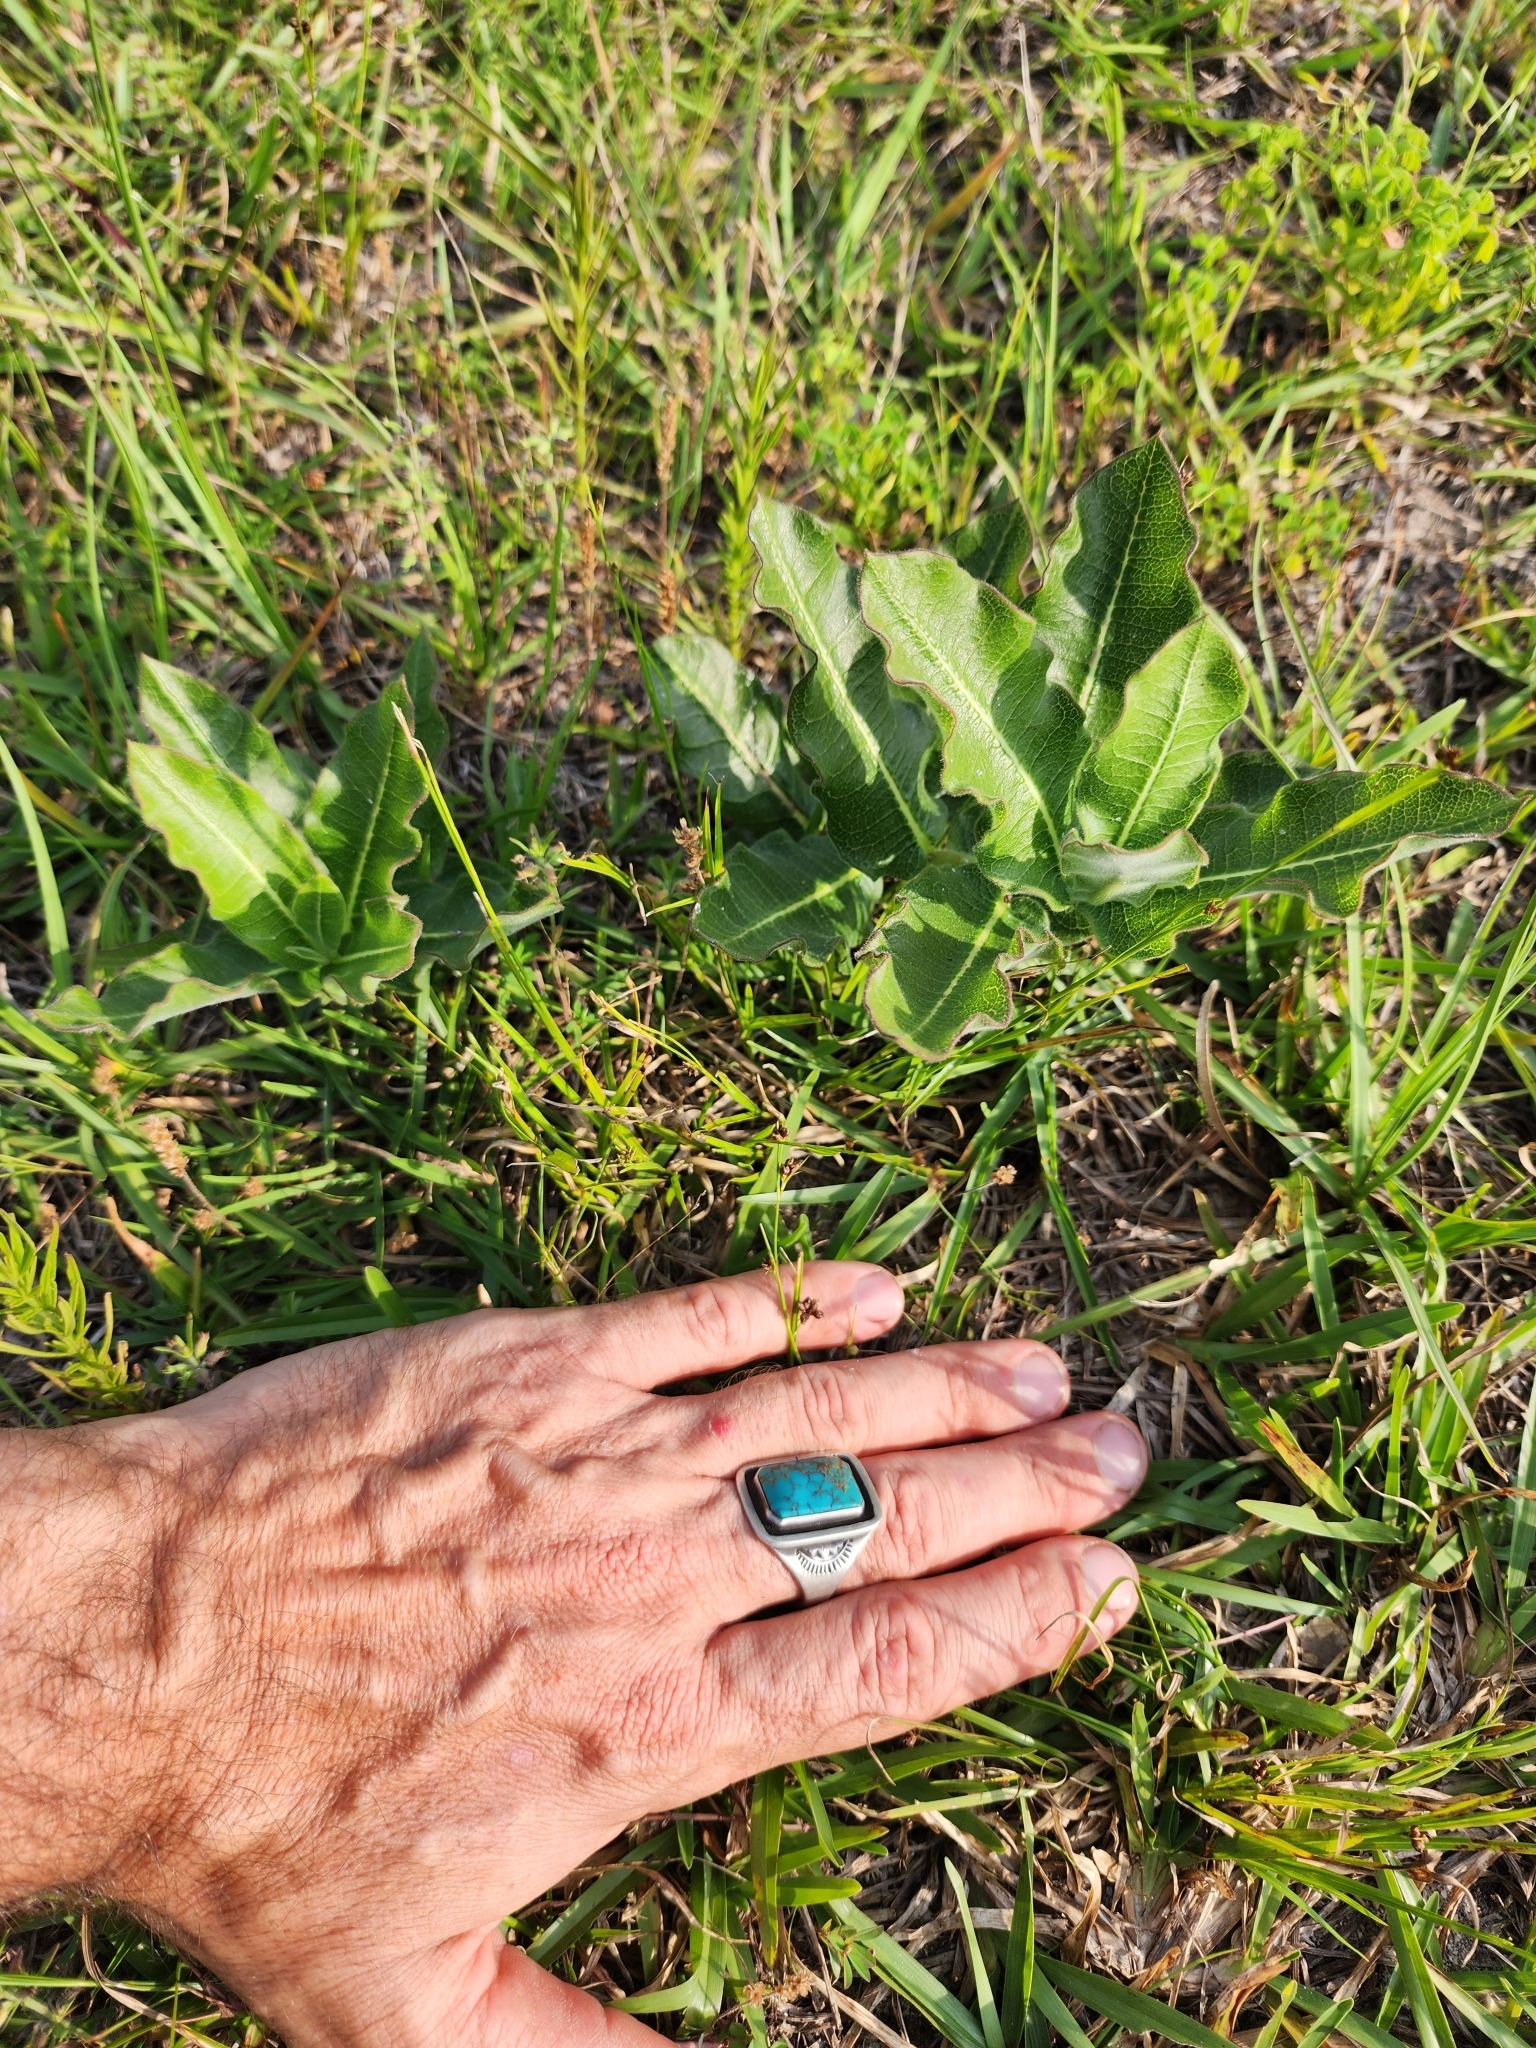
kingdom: Plantae
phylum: Tracheophyta
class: Magnoliopsida
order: Gentianales
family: Apocynaceae
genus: Asclepias
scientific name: Asclepias obovata
